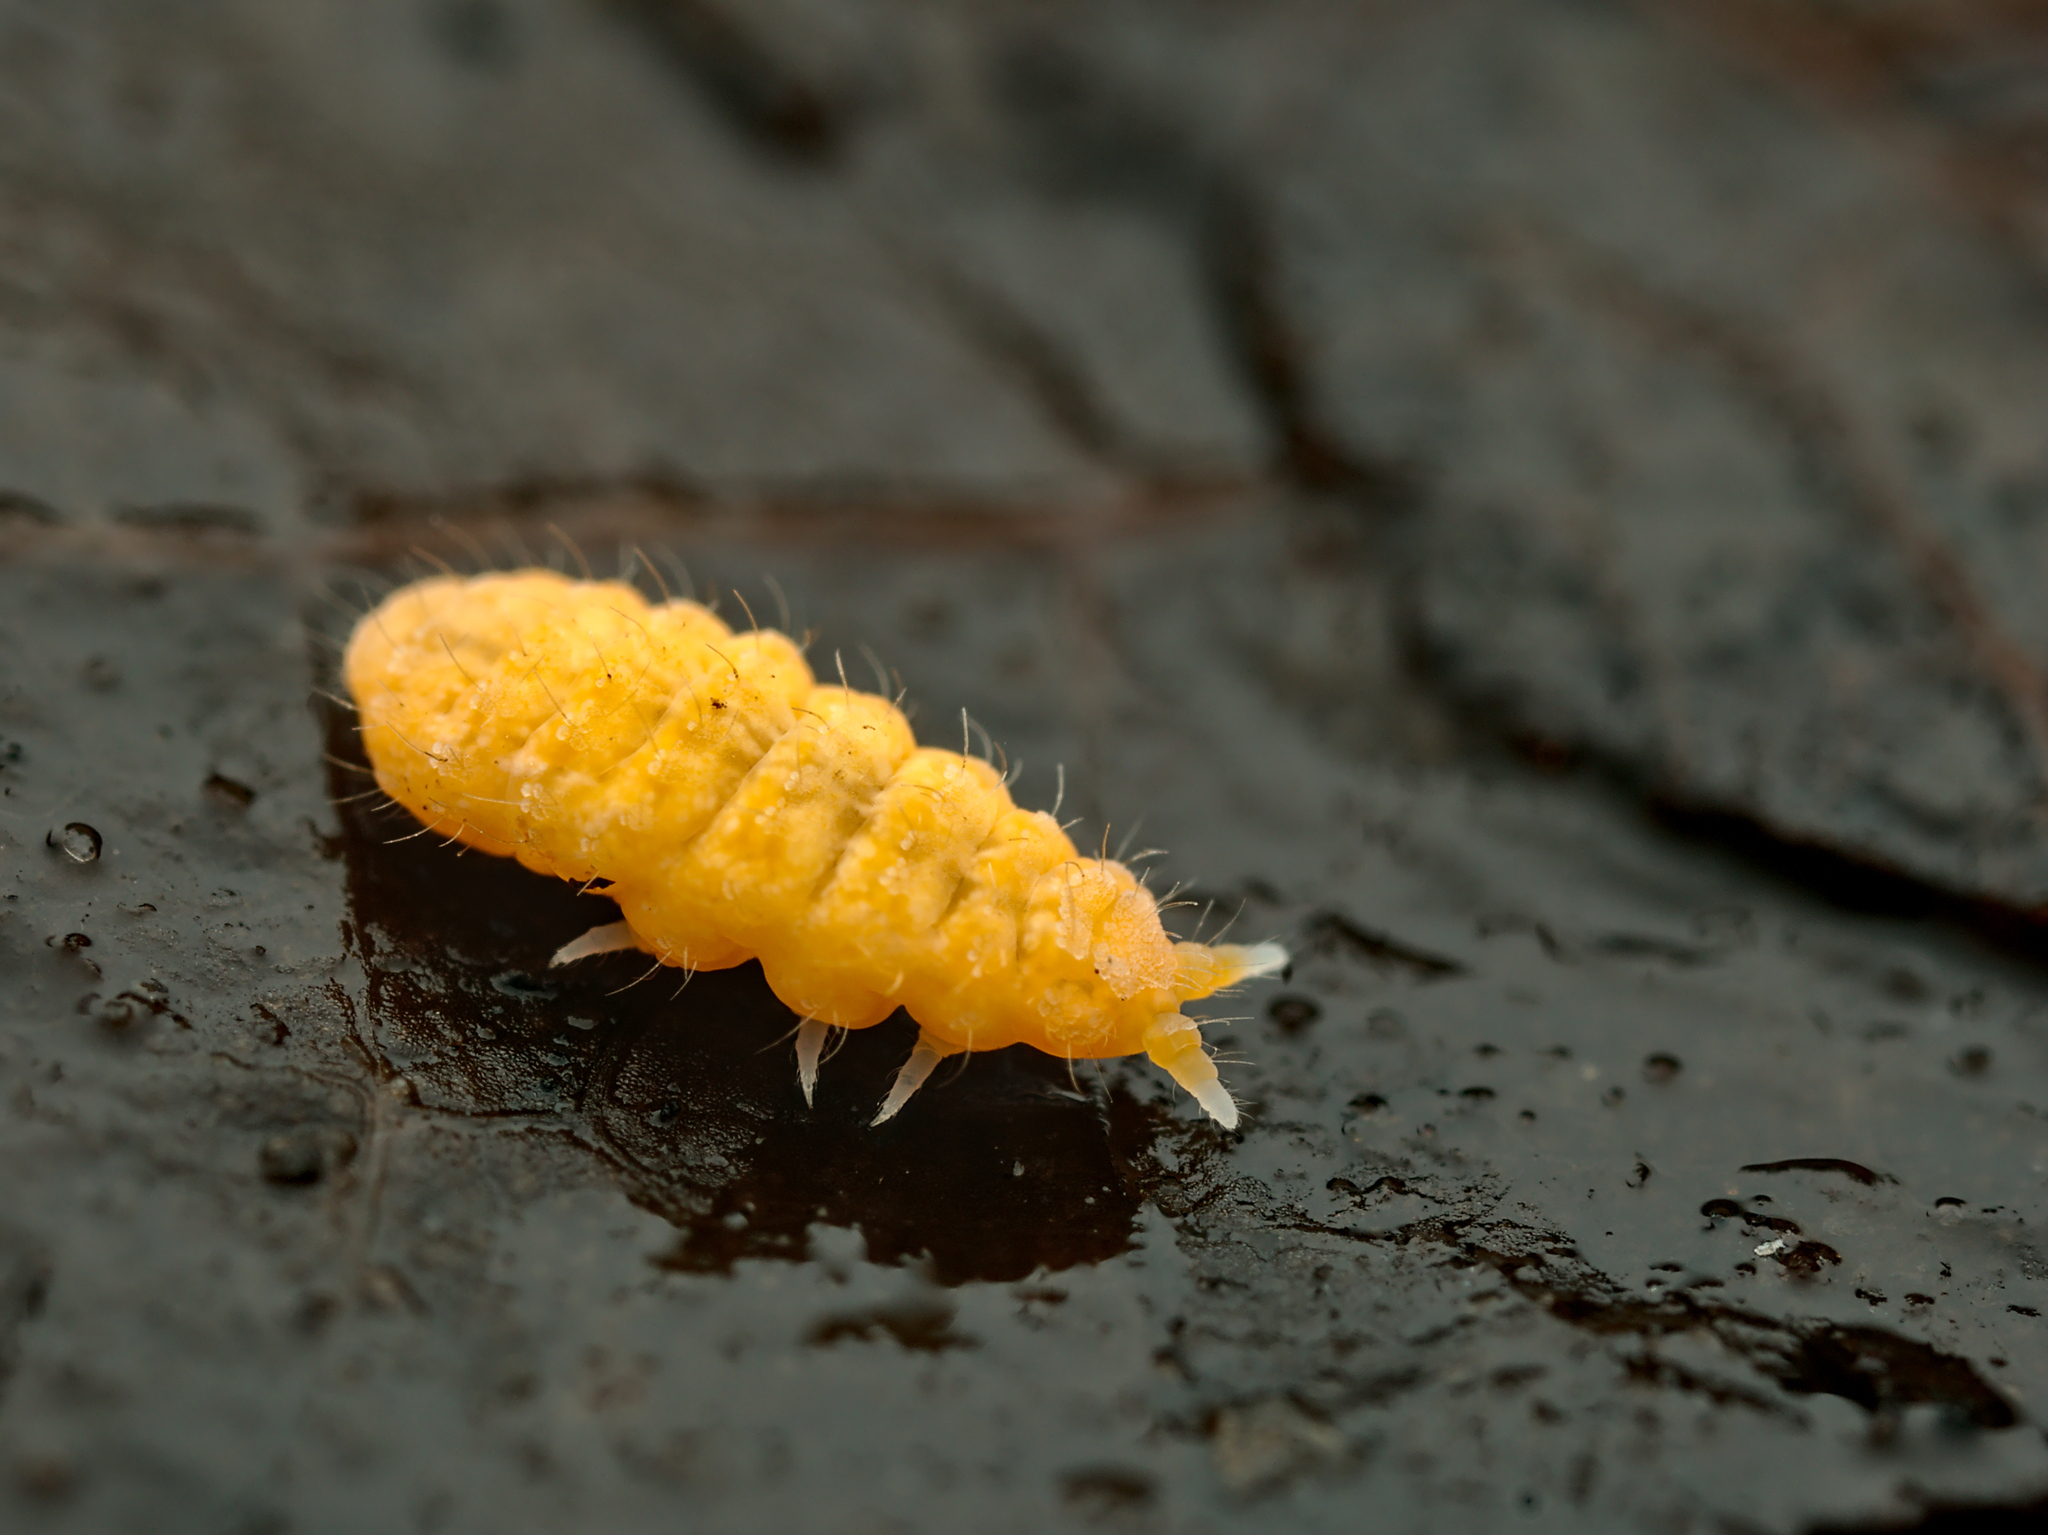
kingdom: Animalia
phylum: Arthropoda
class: Collembola
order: Poduromorpha
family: Neanuridae
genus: Monobella
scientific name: Monobella grassei
